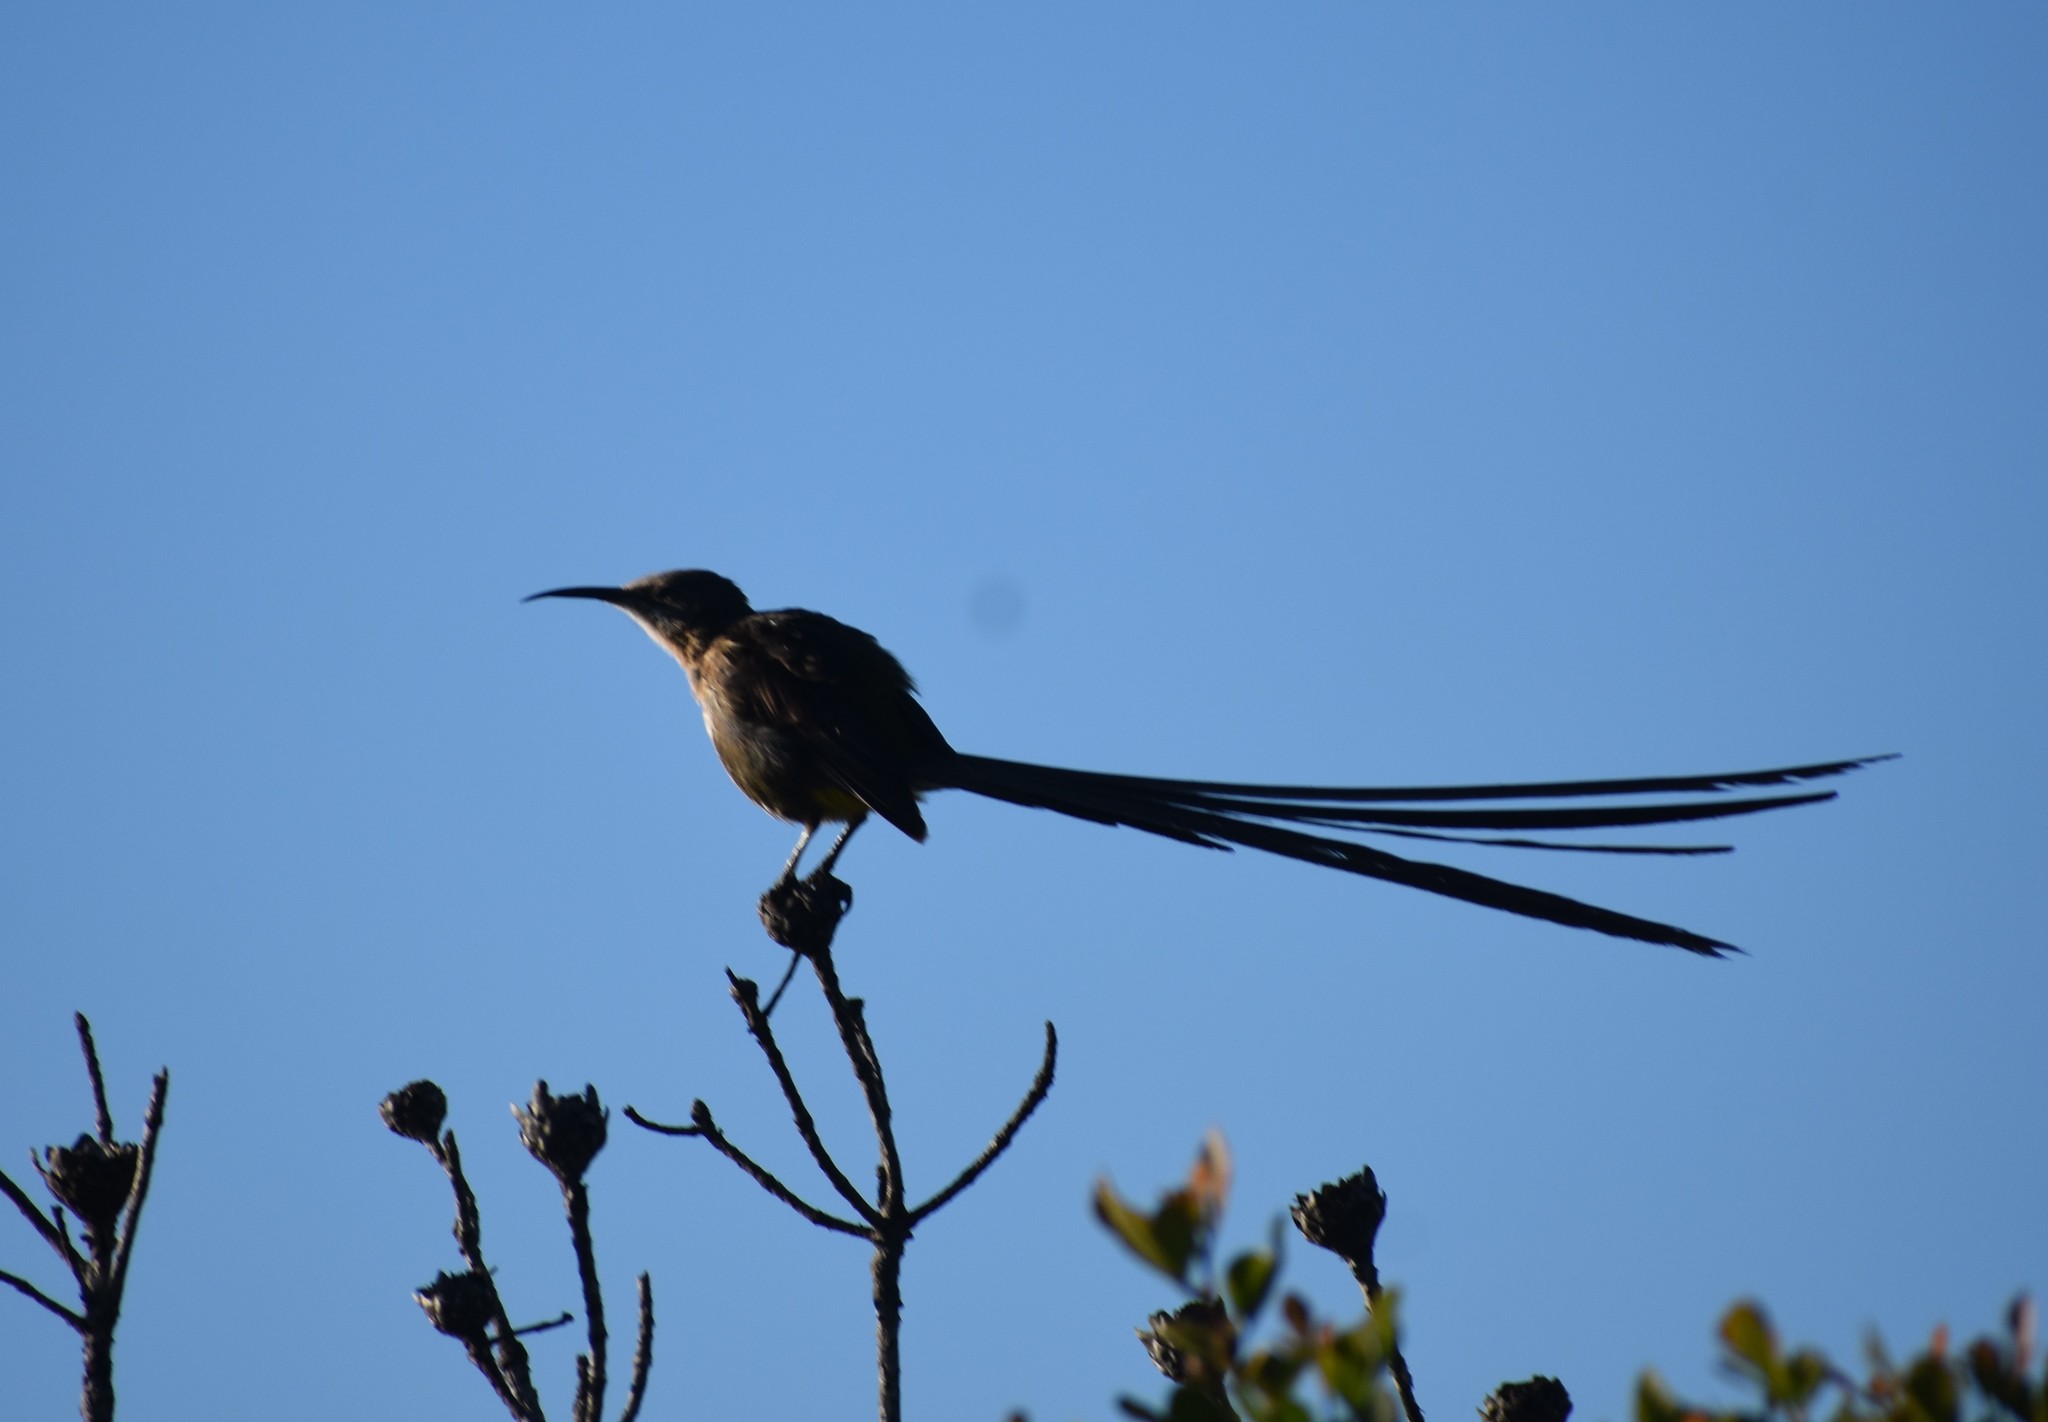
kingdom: Animalia
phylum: Chordata
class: Aves
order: Passeriformes
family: Promeropidae
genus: Promerops
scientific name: Promerops cafer
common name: Cape sugarbird
